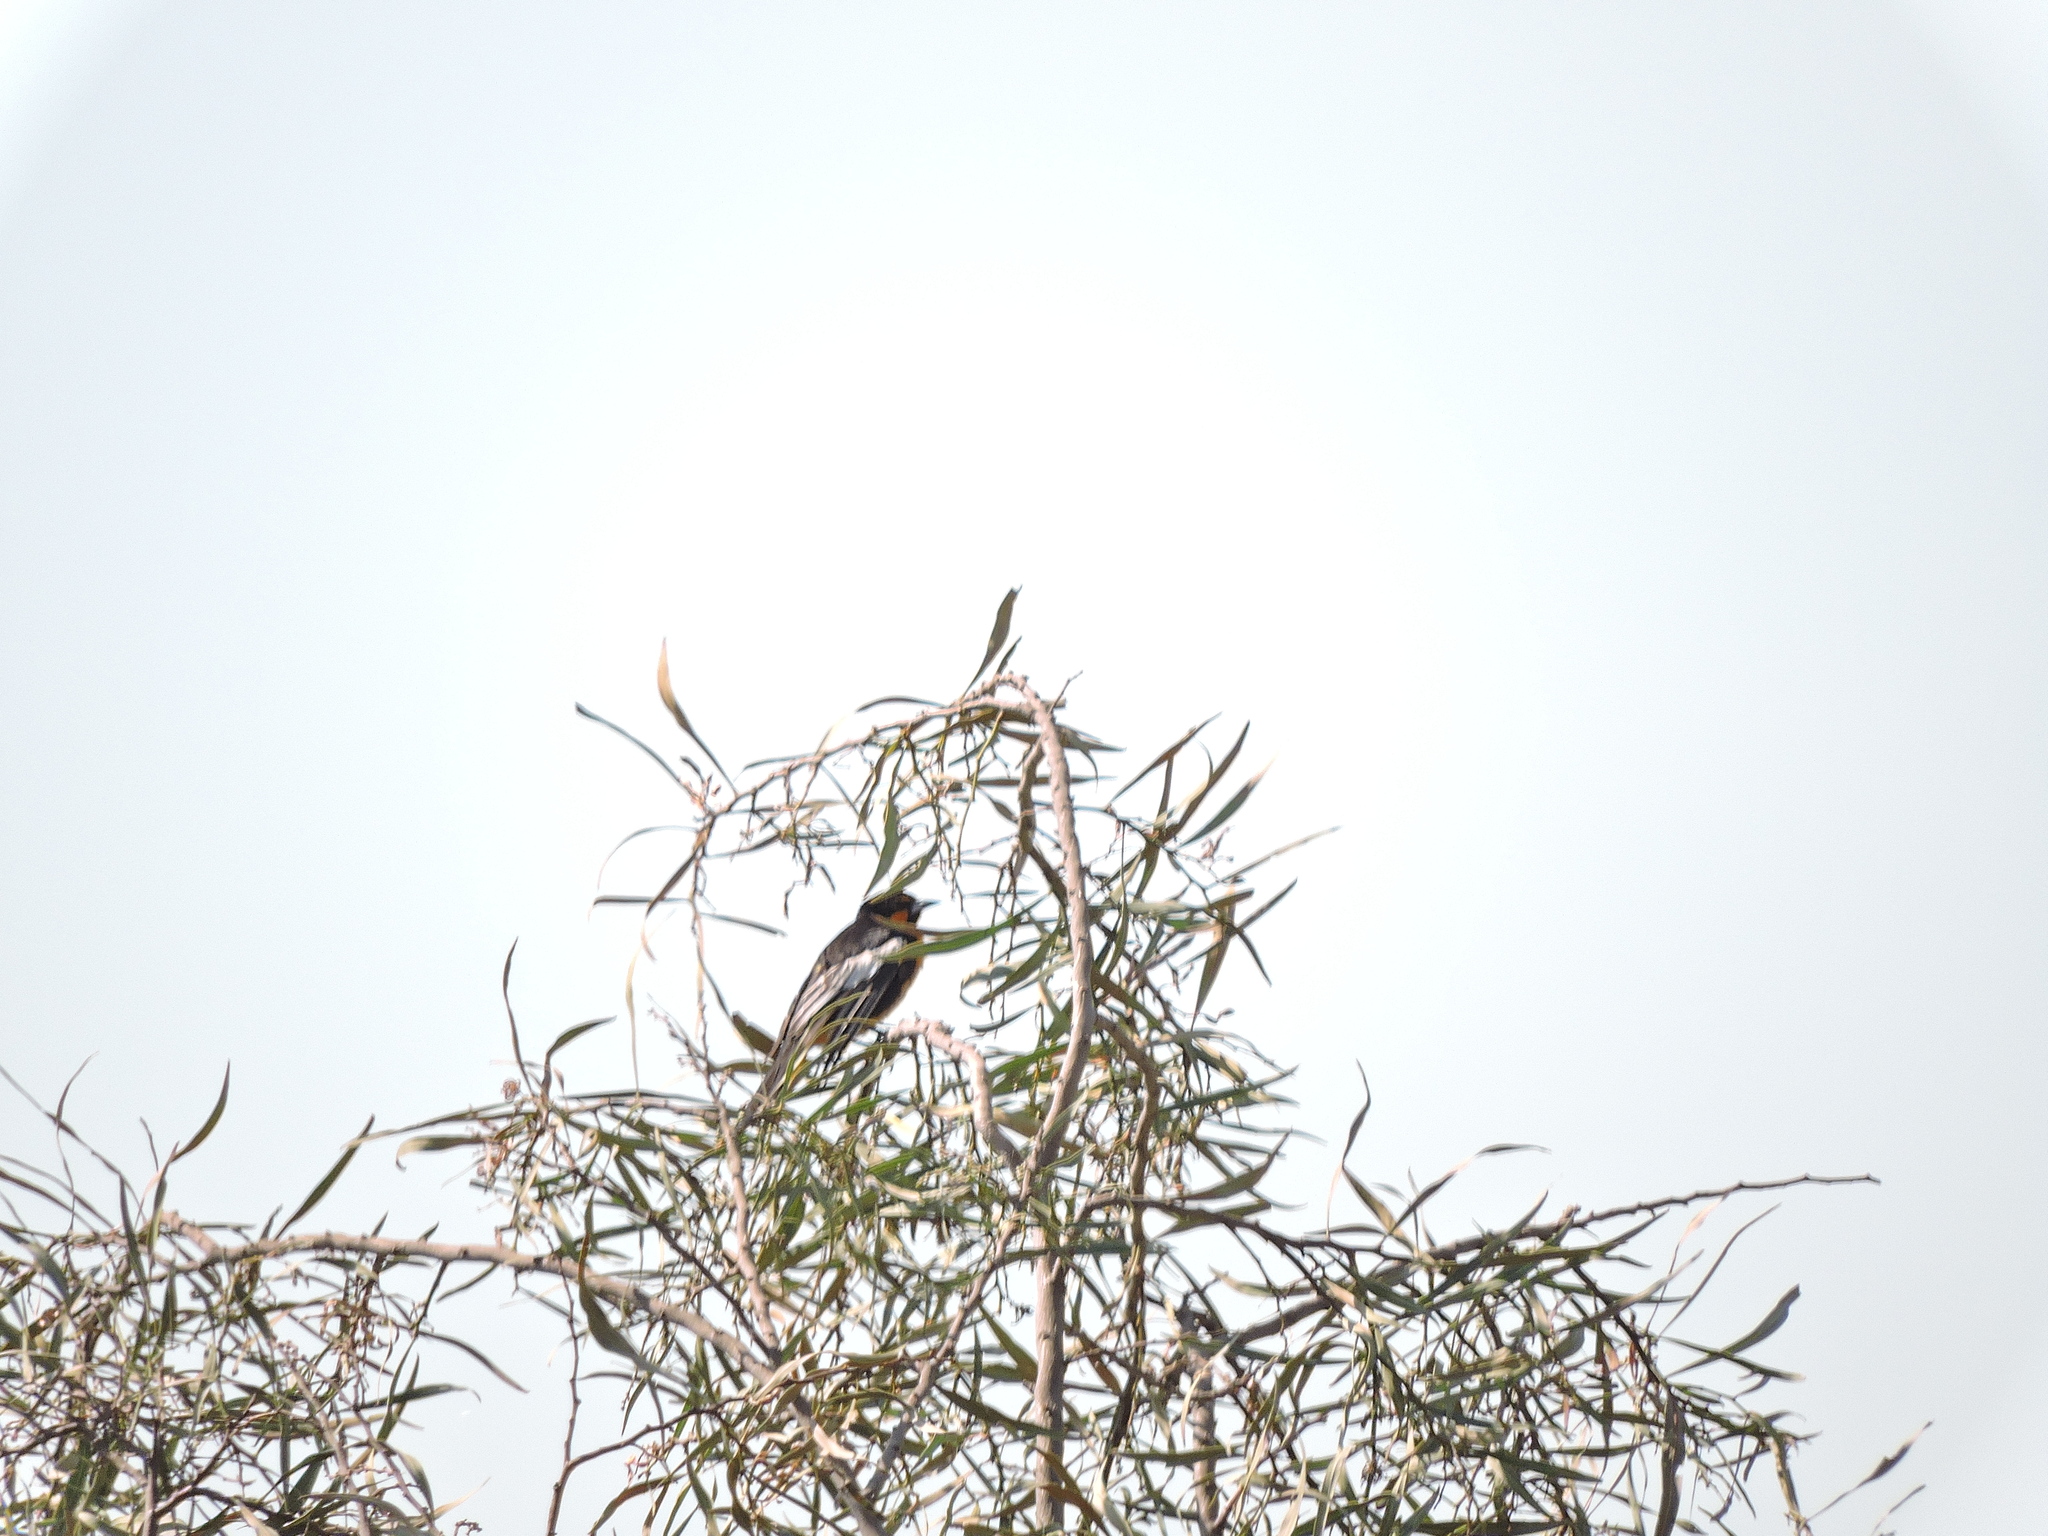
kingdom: Animalia
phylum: Chordata
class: Aves
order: Passeriformes
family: Icteridae
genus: Icterus
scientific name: Icterus abeillei
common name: Black-backed oriole
